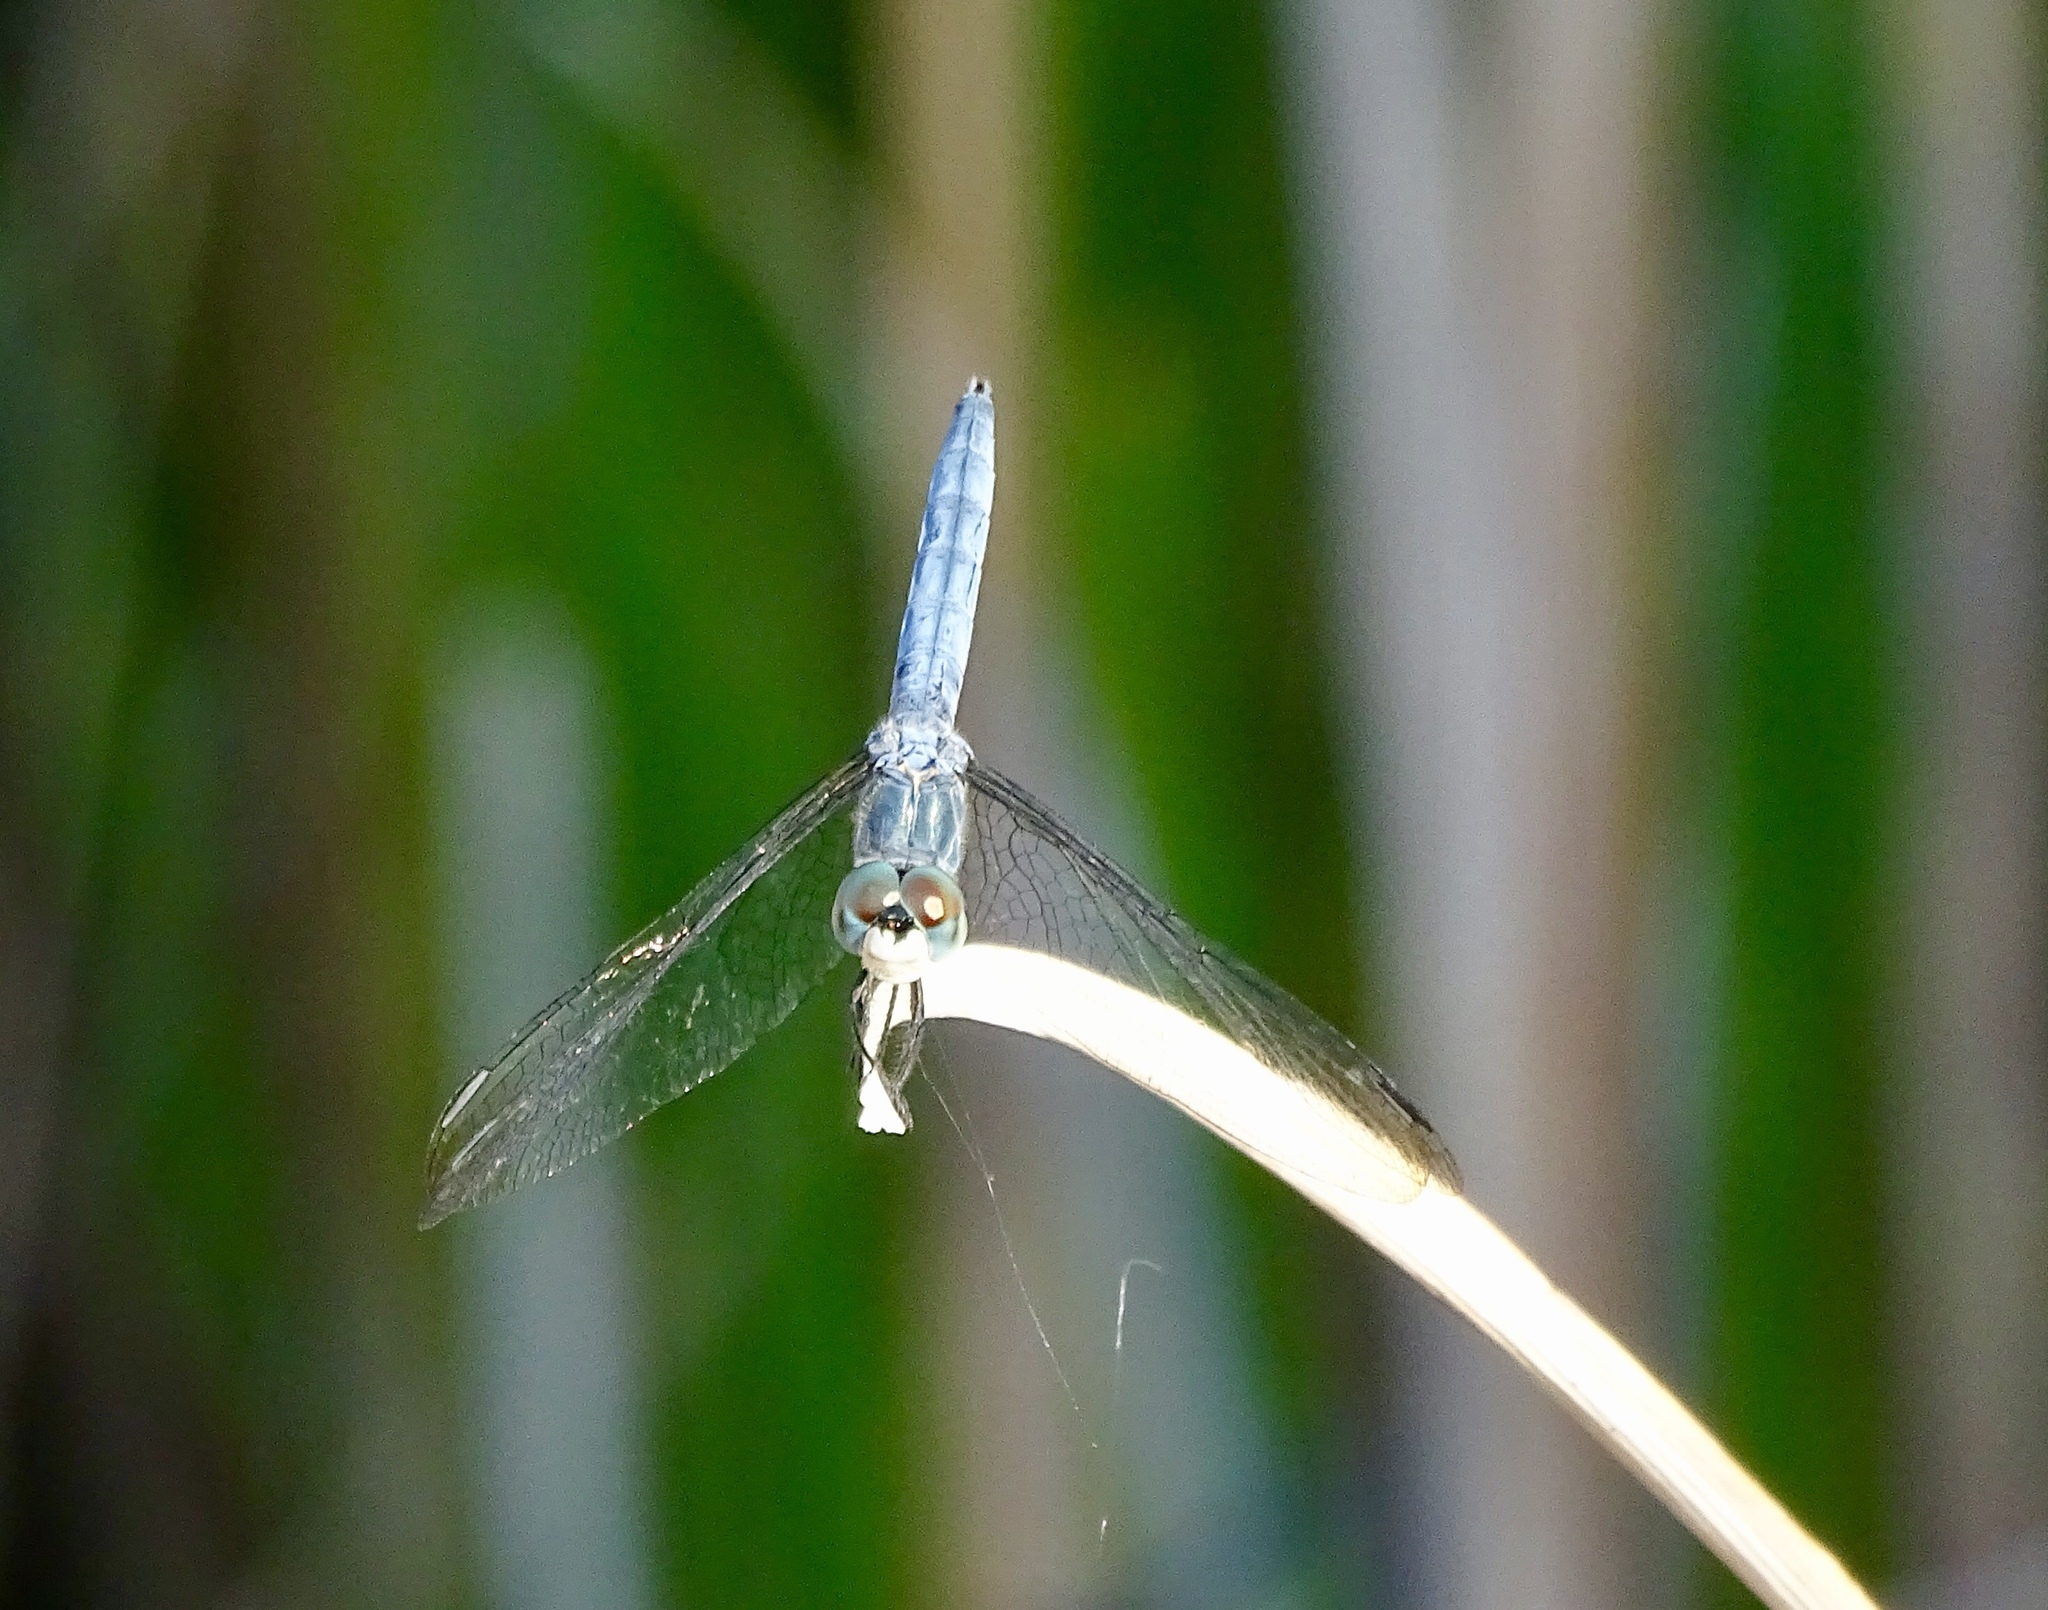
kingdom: Animalia
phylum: Arthropoda
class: Insecta
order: Odonata
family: Libellulidae
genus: Pachydiplax
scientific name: Pachydiplax longipennis
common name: Blue dasher
